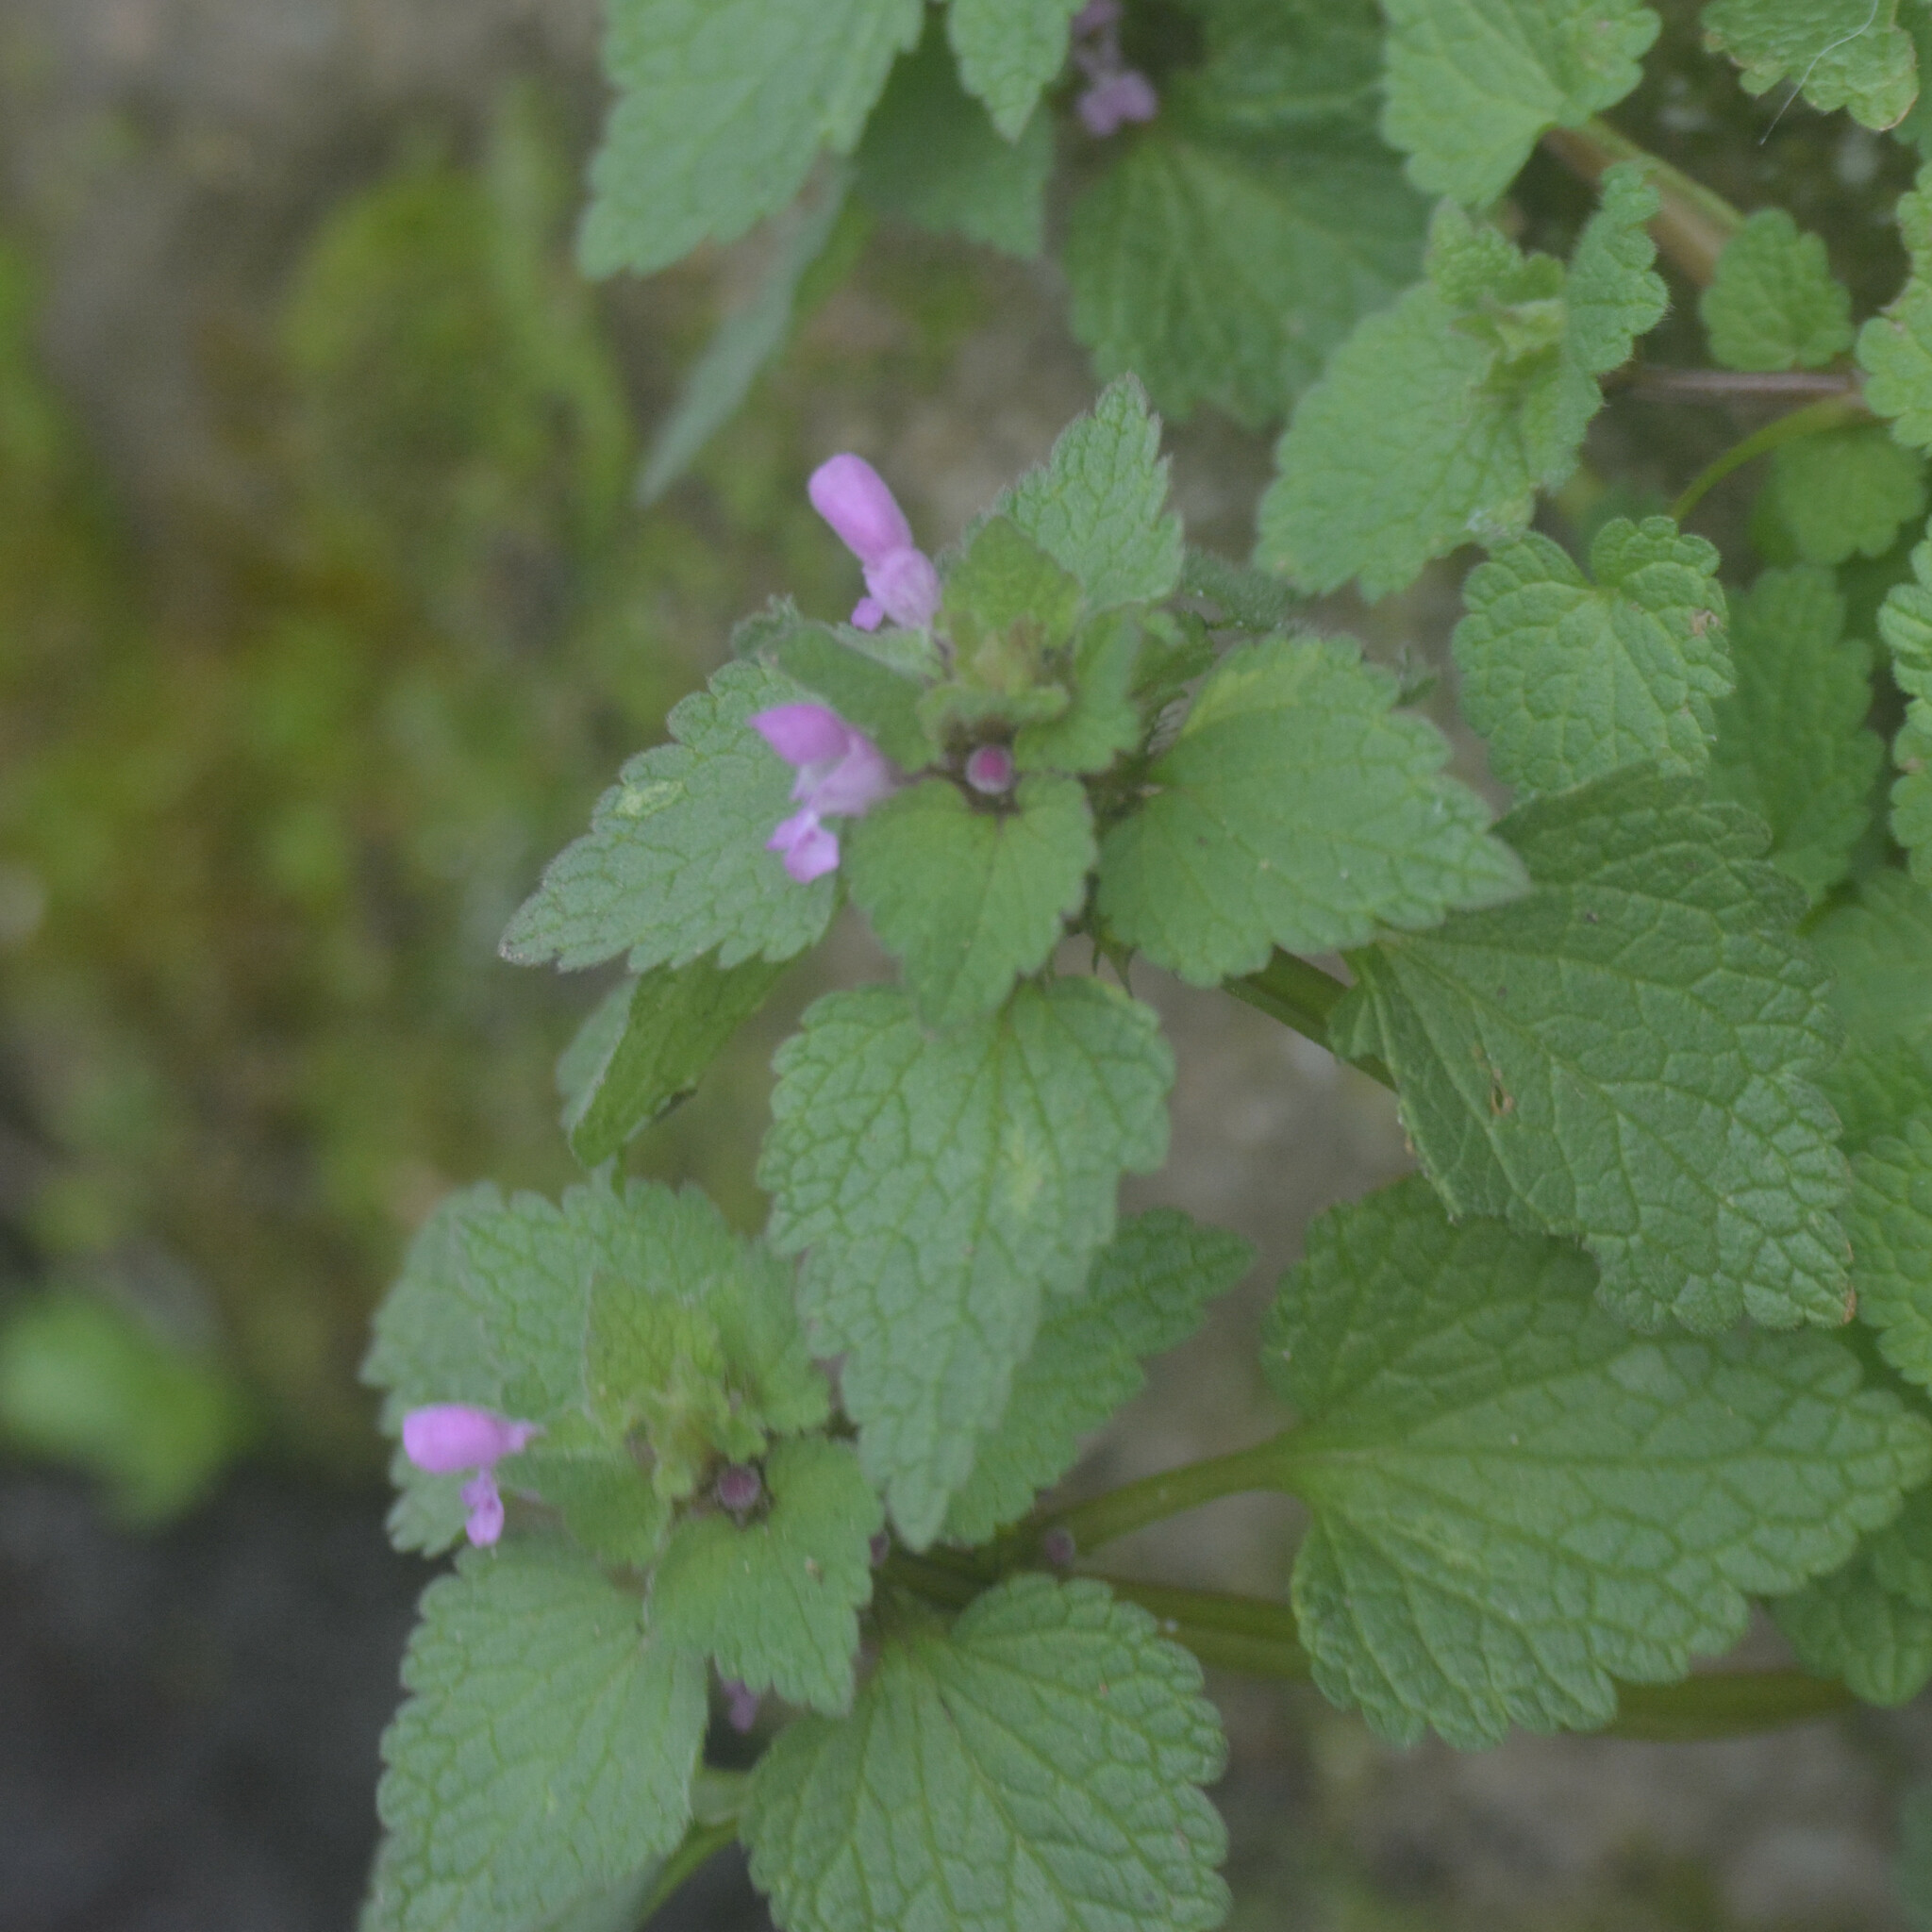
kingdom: Plantae
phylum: Tracheophyta
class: Magnoliopsida
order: Lamiales
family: Lamiaceae
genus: Lamium
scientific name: Lamium purpureum
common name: Red dead-nettle
